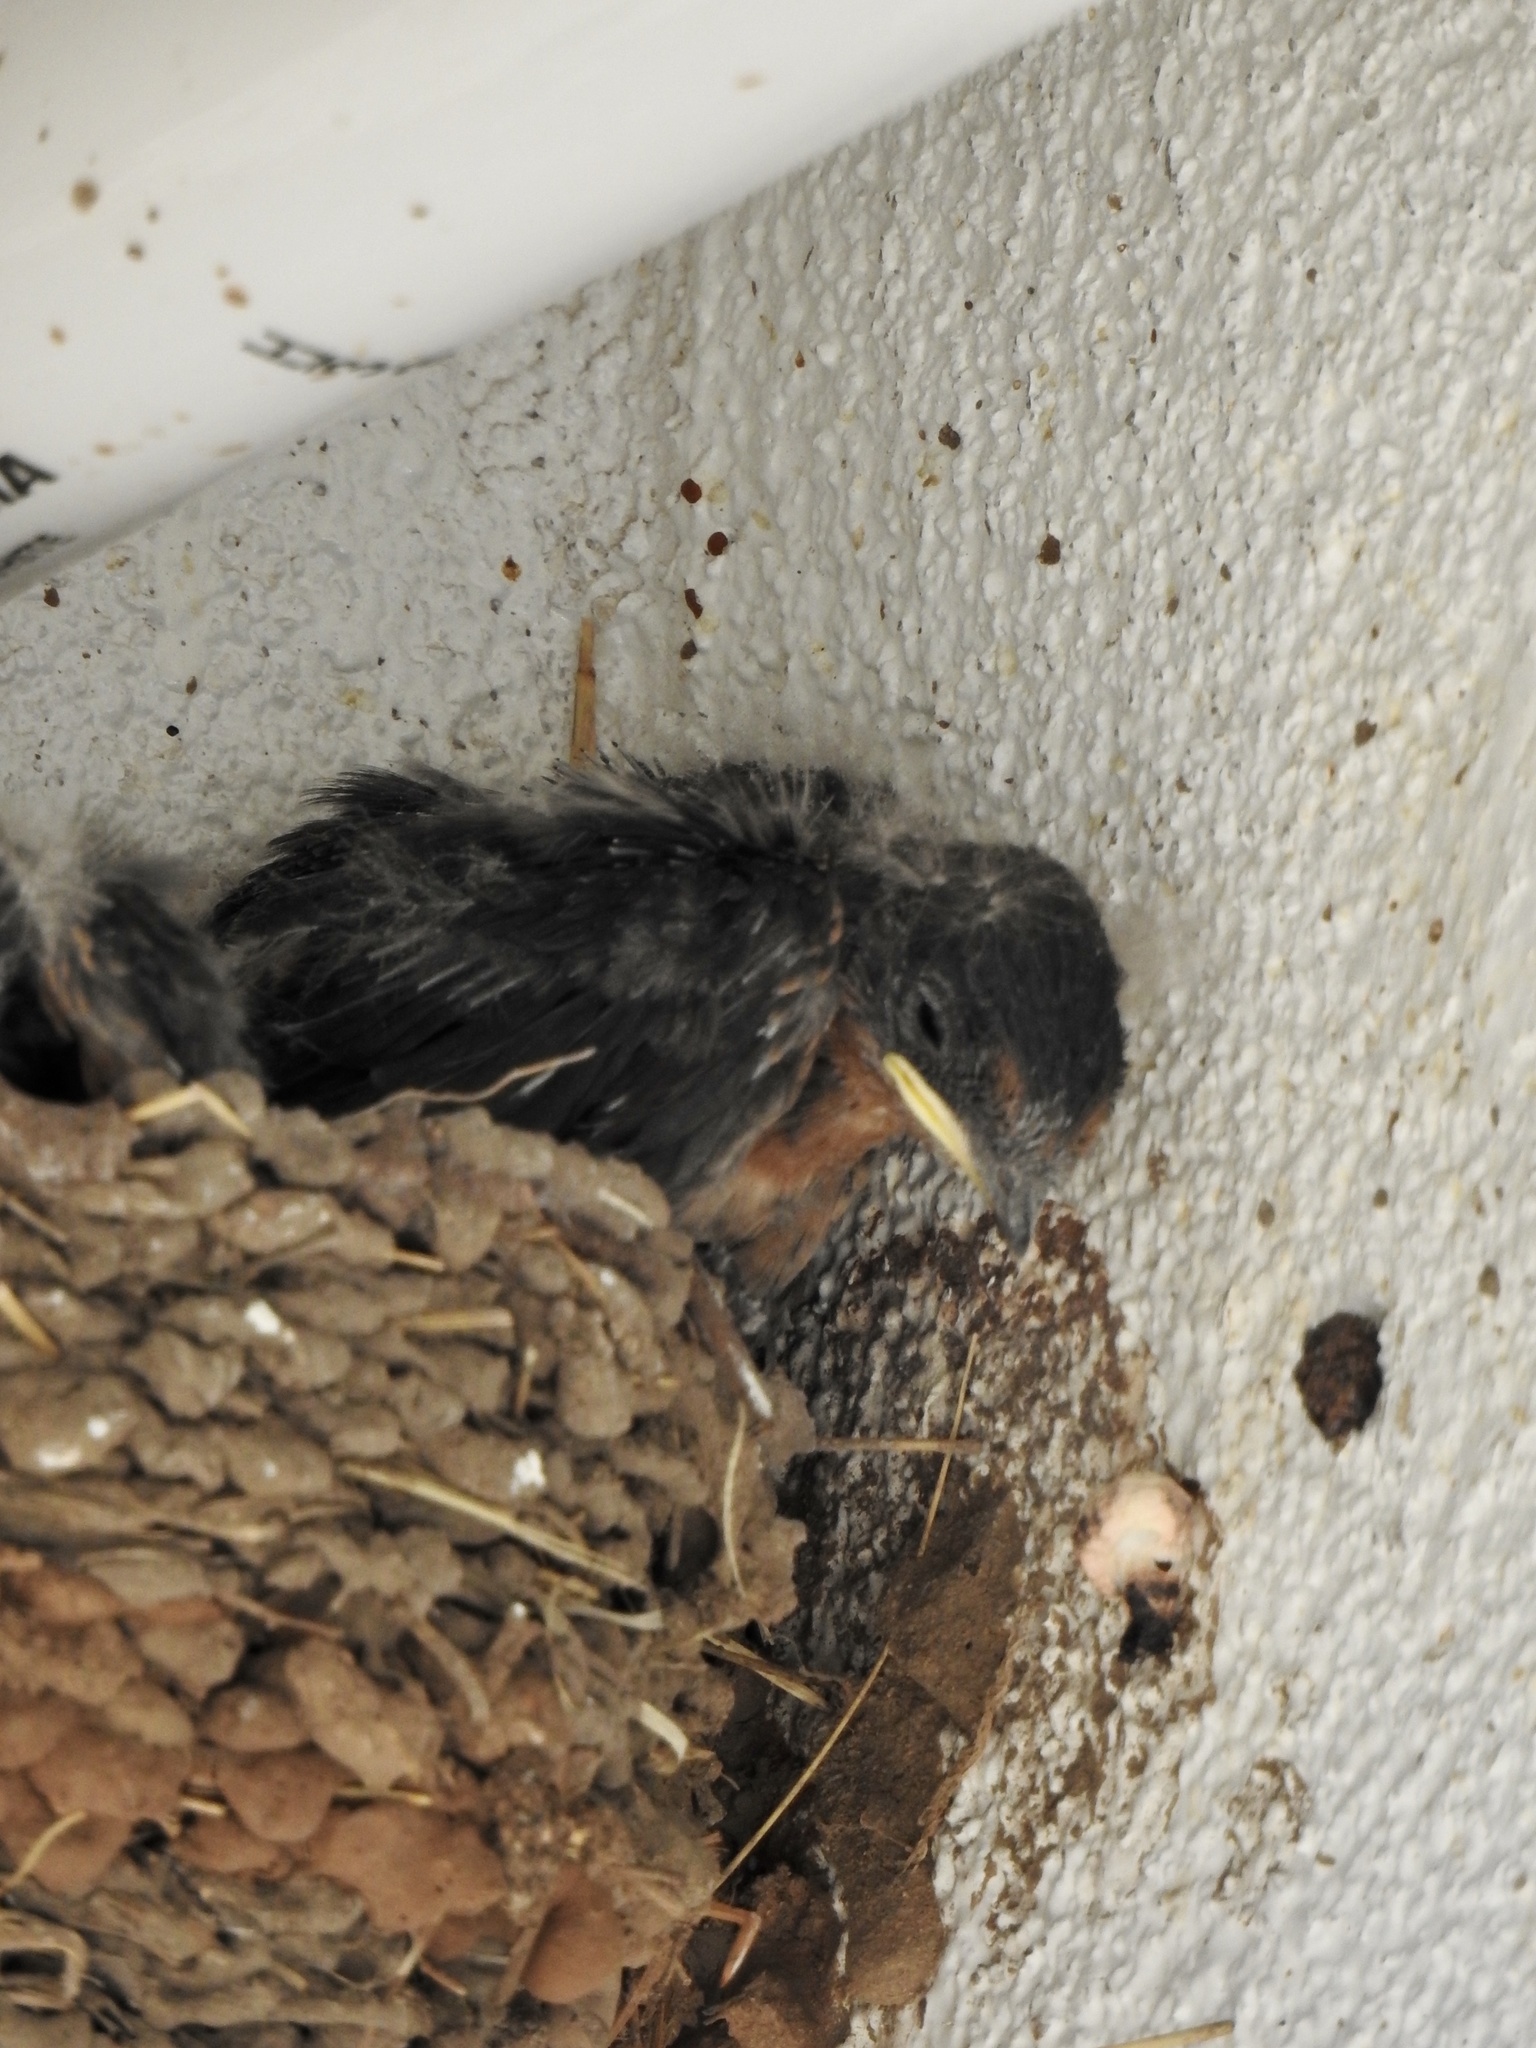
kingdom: Animalia
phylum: Chordata
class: Aves
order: Passeriformes
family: Hirundinidae
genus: Hirundo
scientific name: Hirundo rustica
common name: Barn swallow
